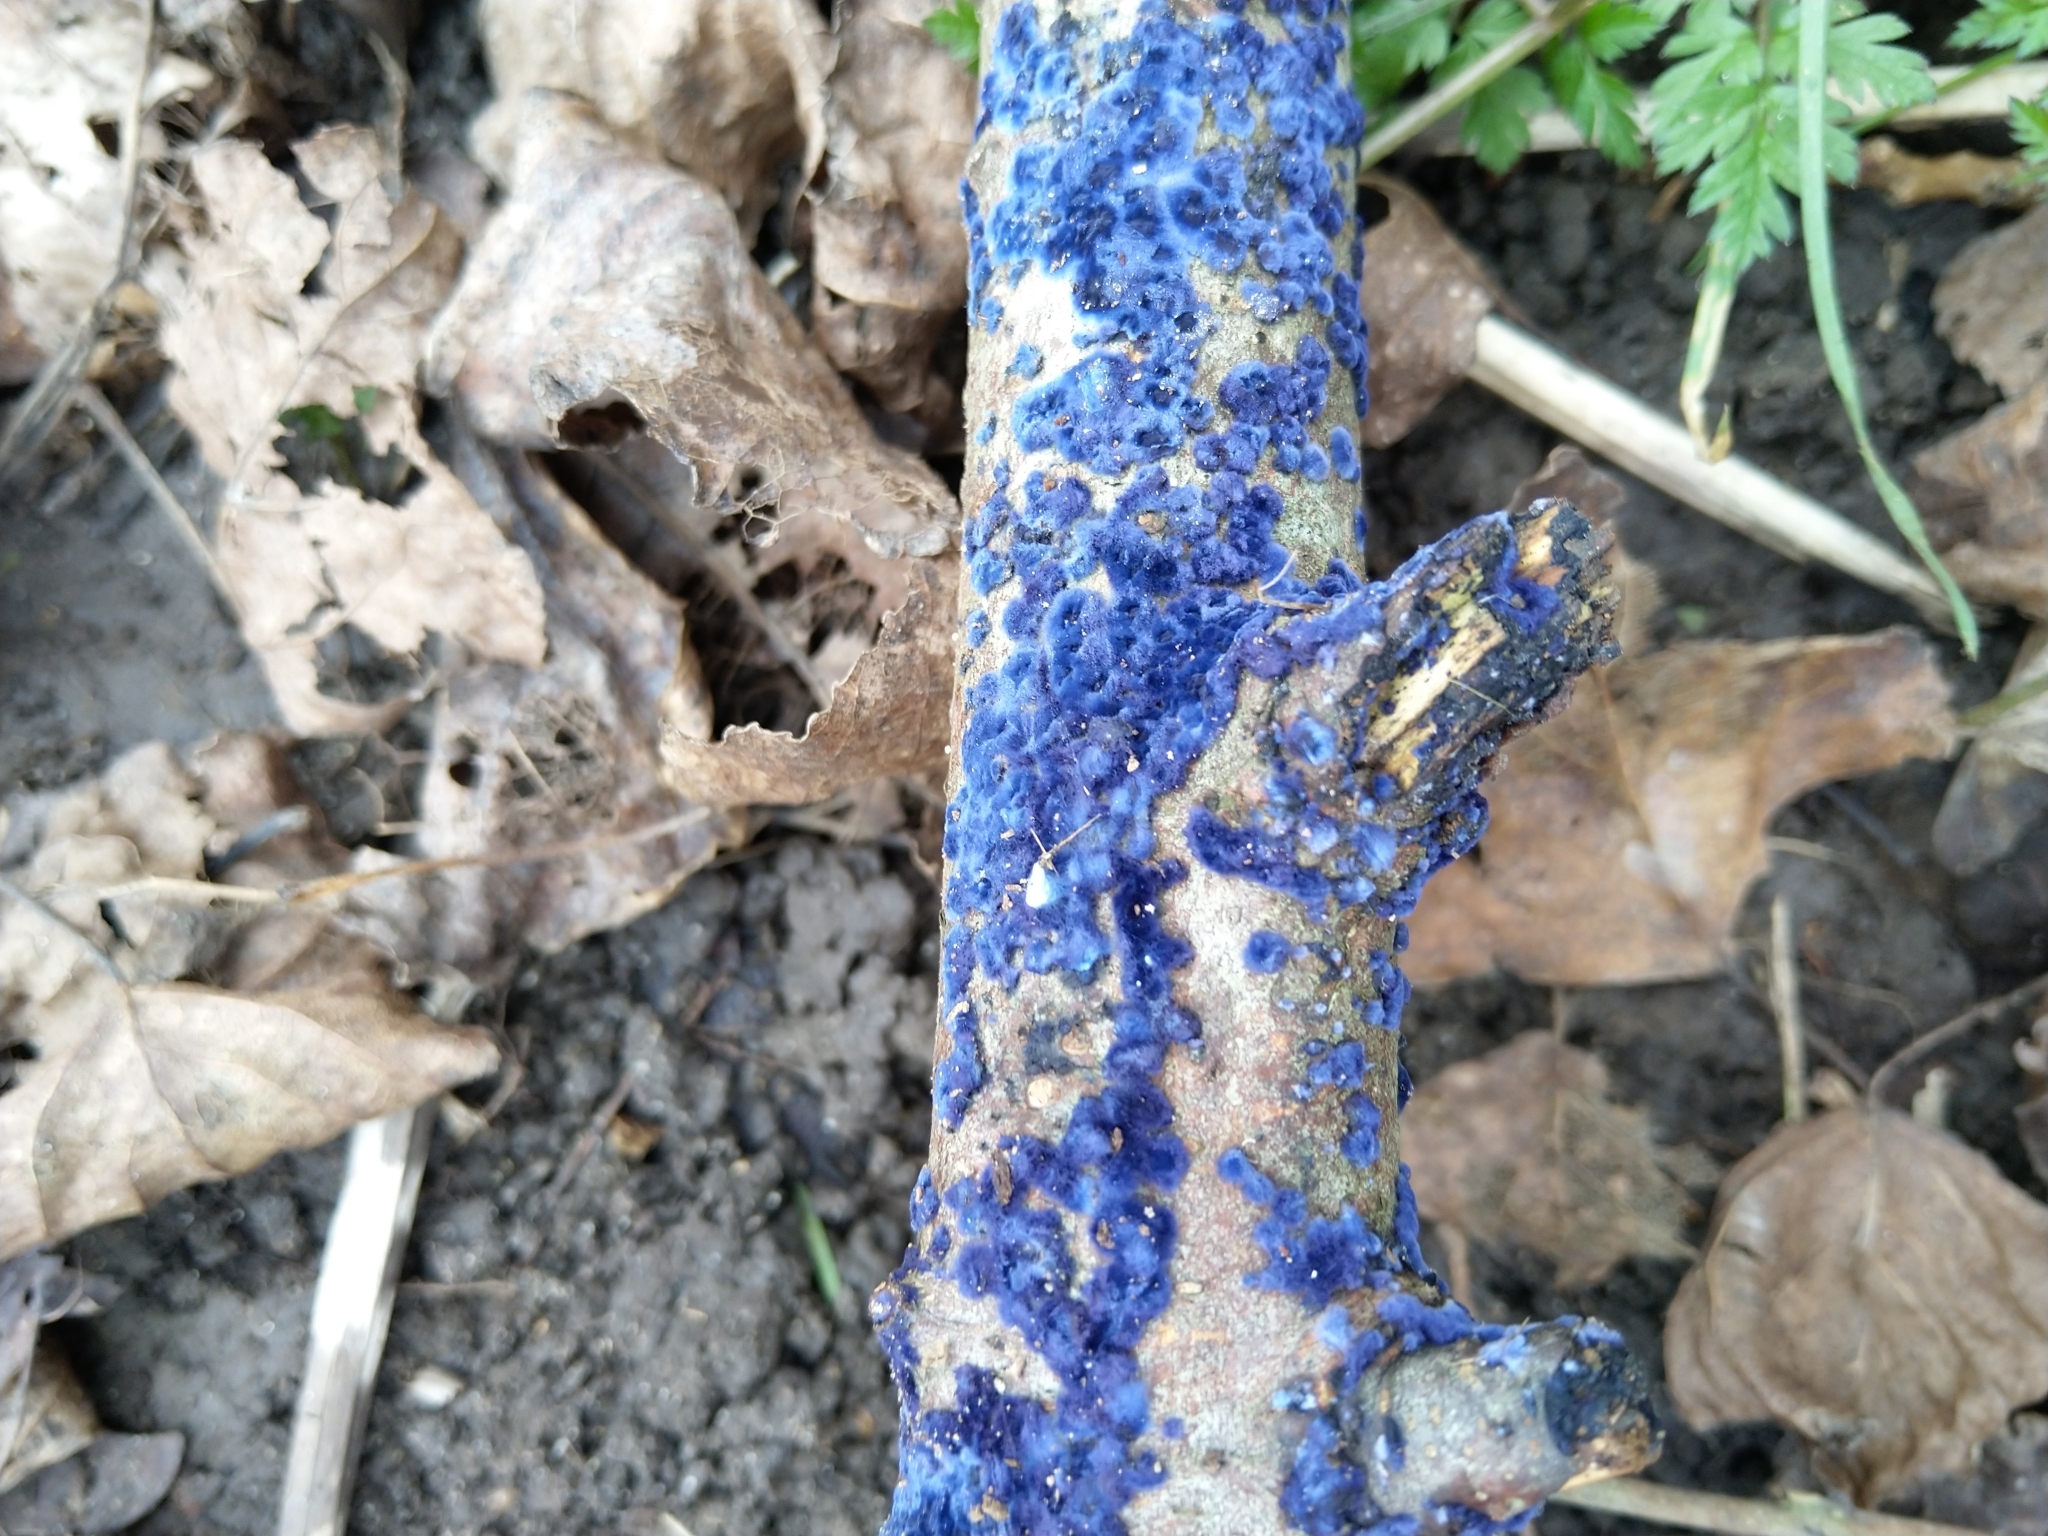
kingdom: Fungi
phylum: Basidiomycota
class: Agaricomycetes
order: Polyporales
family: Phanerochaetaceae
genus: Terana
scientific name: Terana coerulea
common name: Cobalt crust
